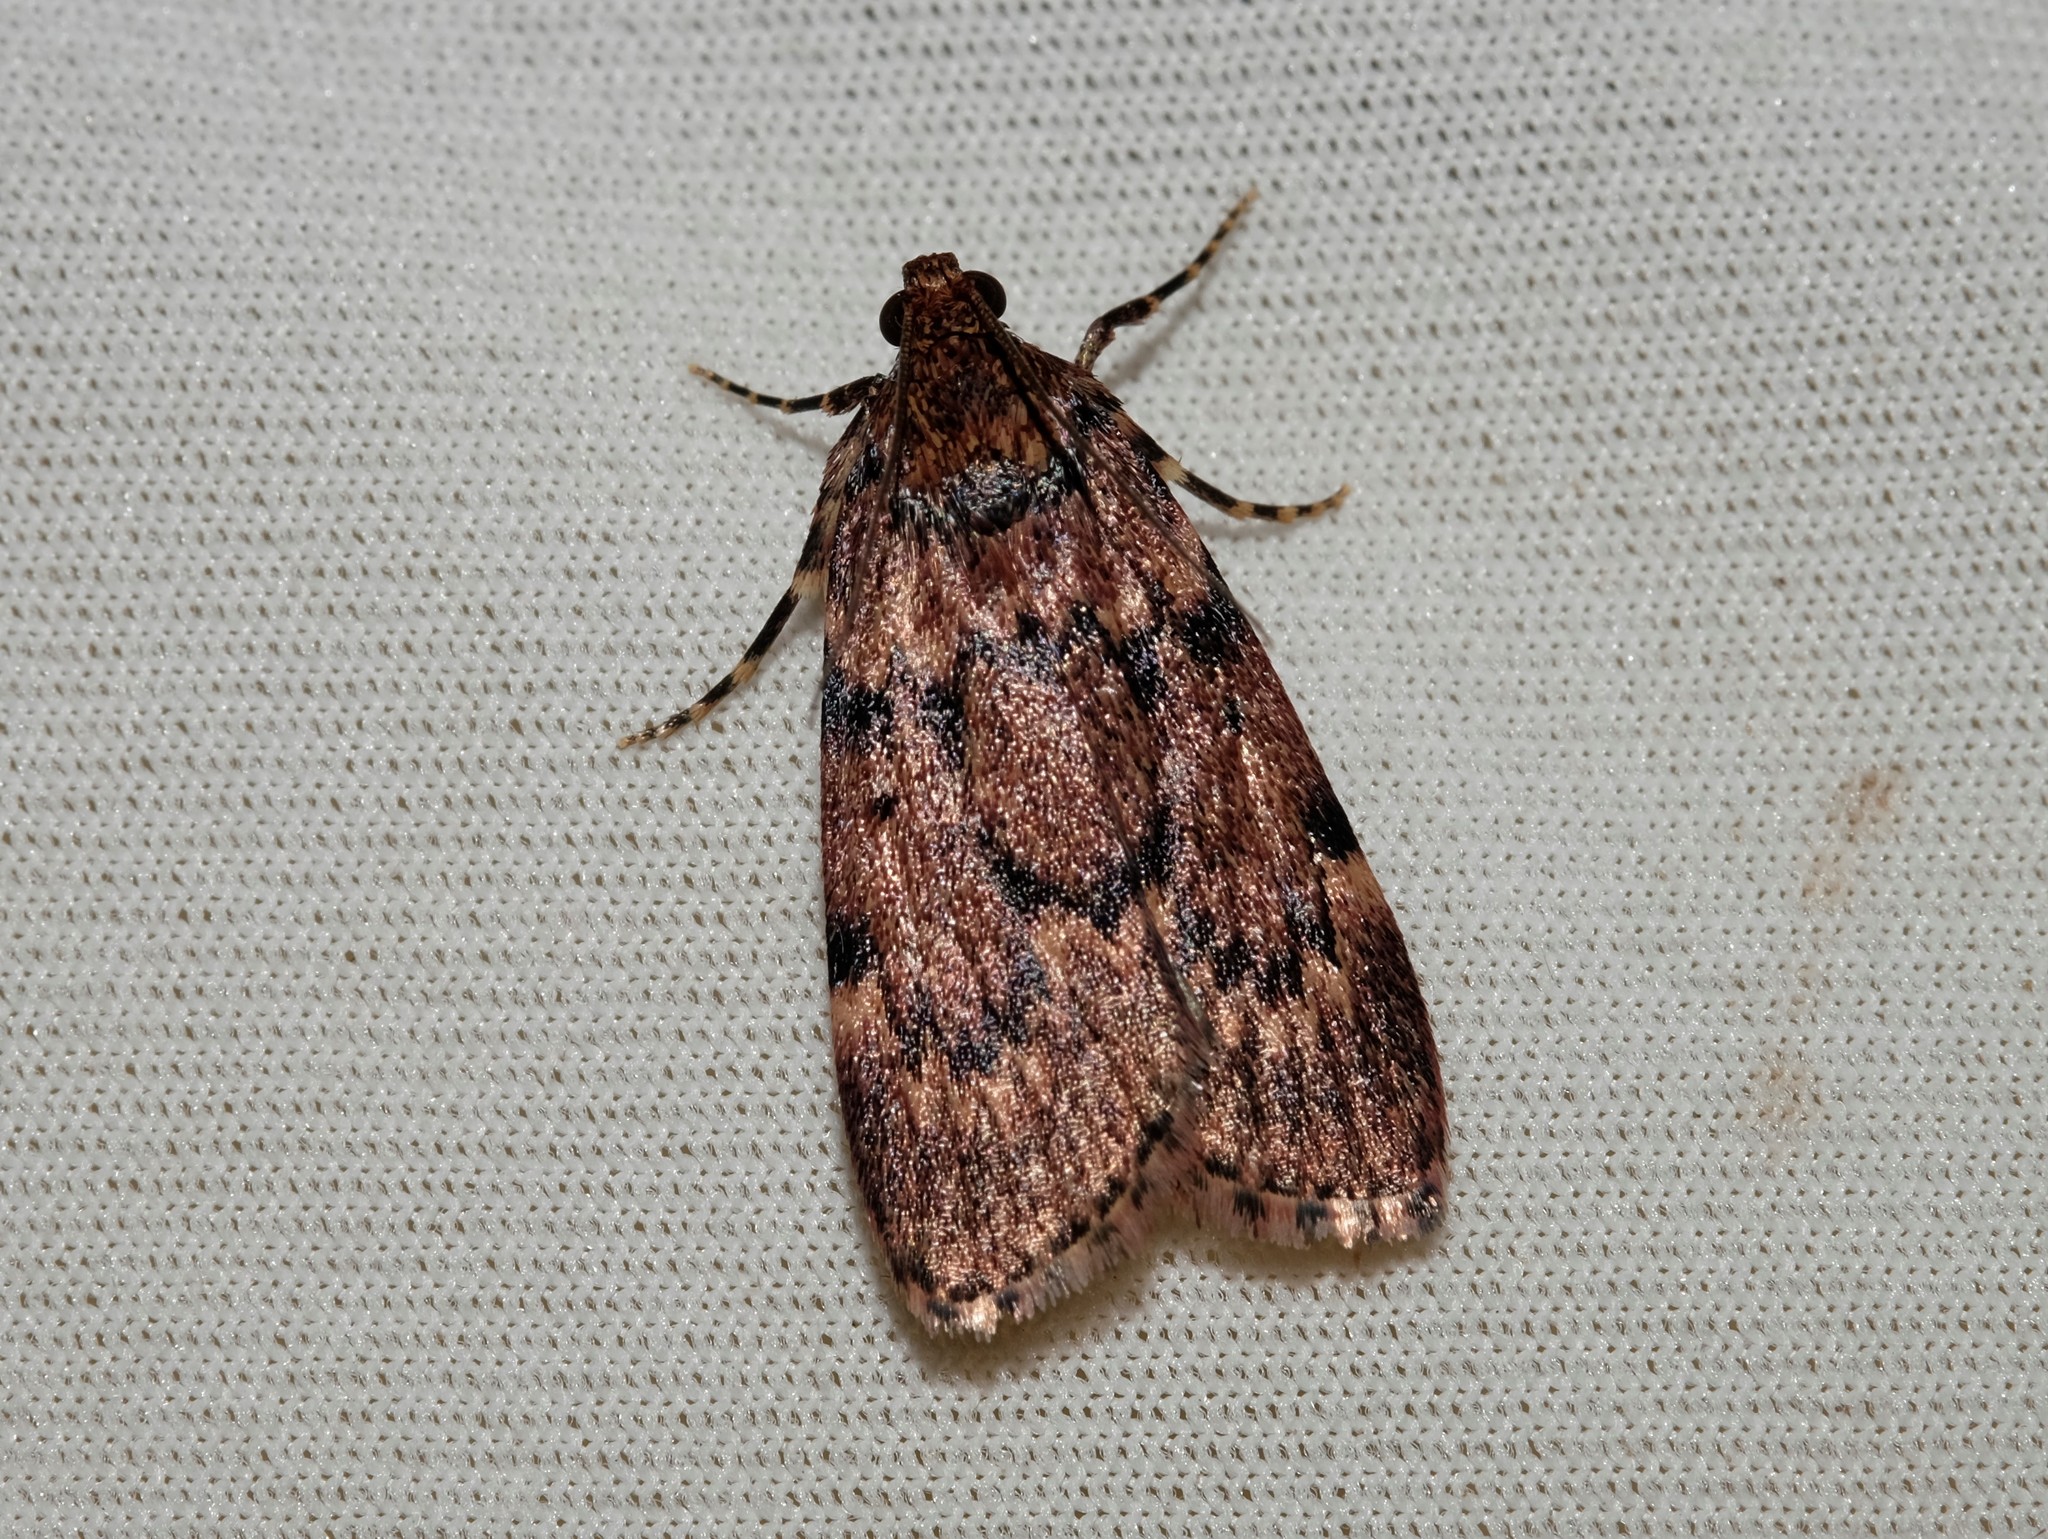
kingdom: Animalia
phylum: Arthropoda
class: Insecta
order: Lepidoptera
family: Pyralidae
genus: Mimaglossa
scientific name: Mimaglossa nauplialis
